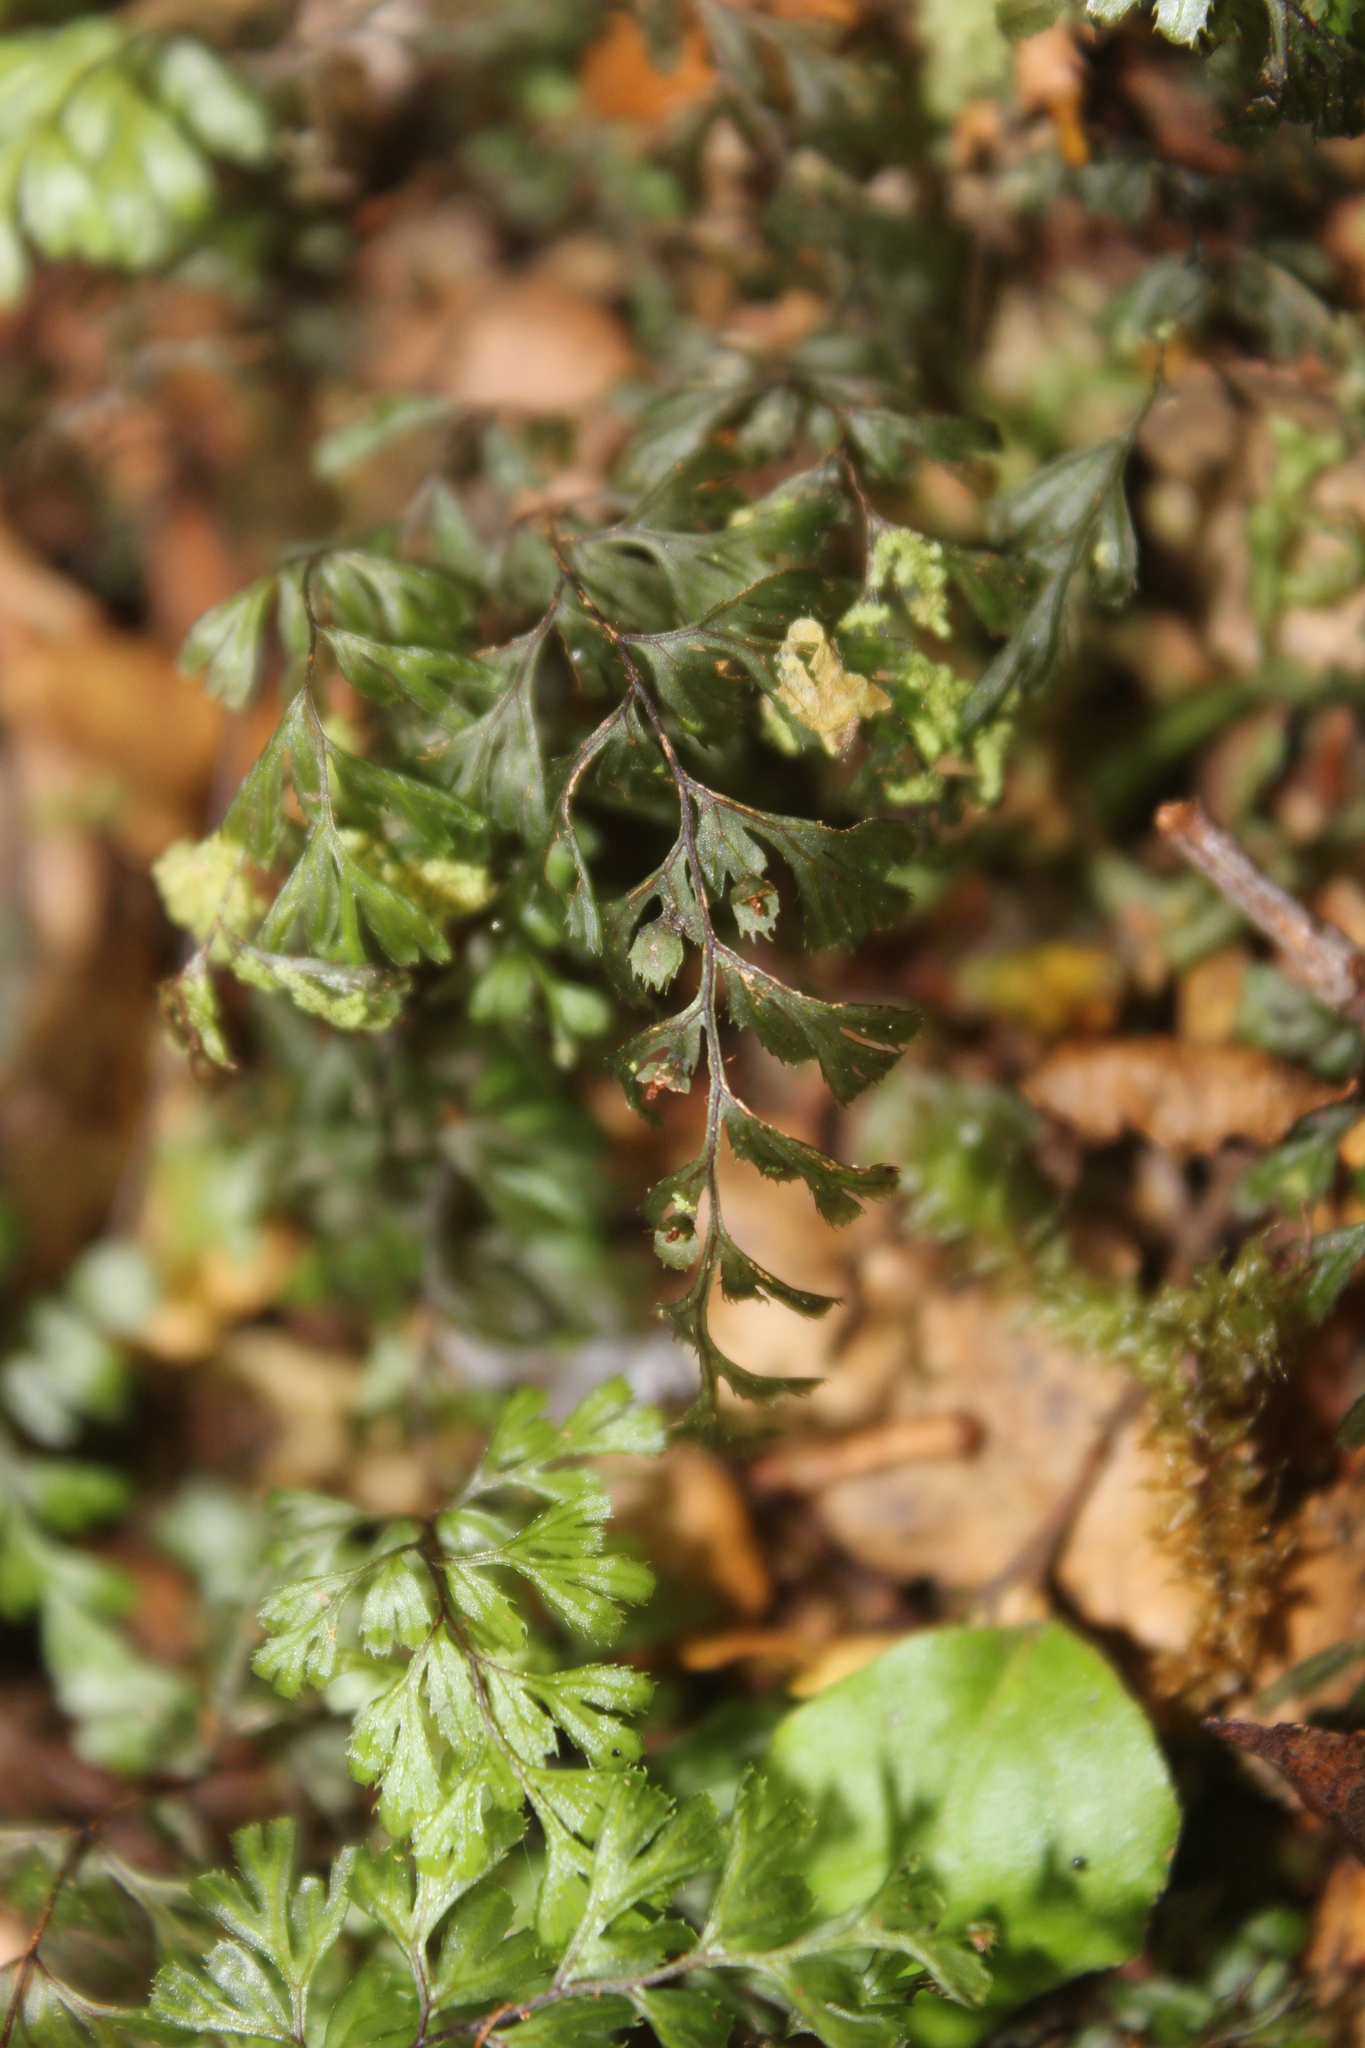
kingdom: Plantae
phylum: Tracheophyta
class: Polypodiopsida
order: Hymenophyllales
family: Hymenophyllaceae
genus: Hymenophyllum
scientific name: Hymenophyllum revolutum
